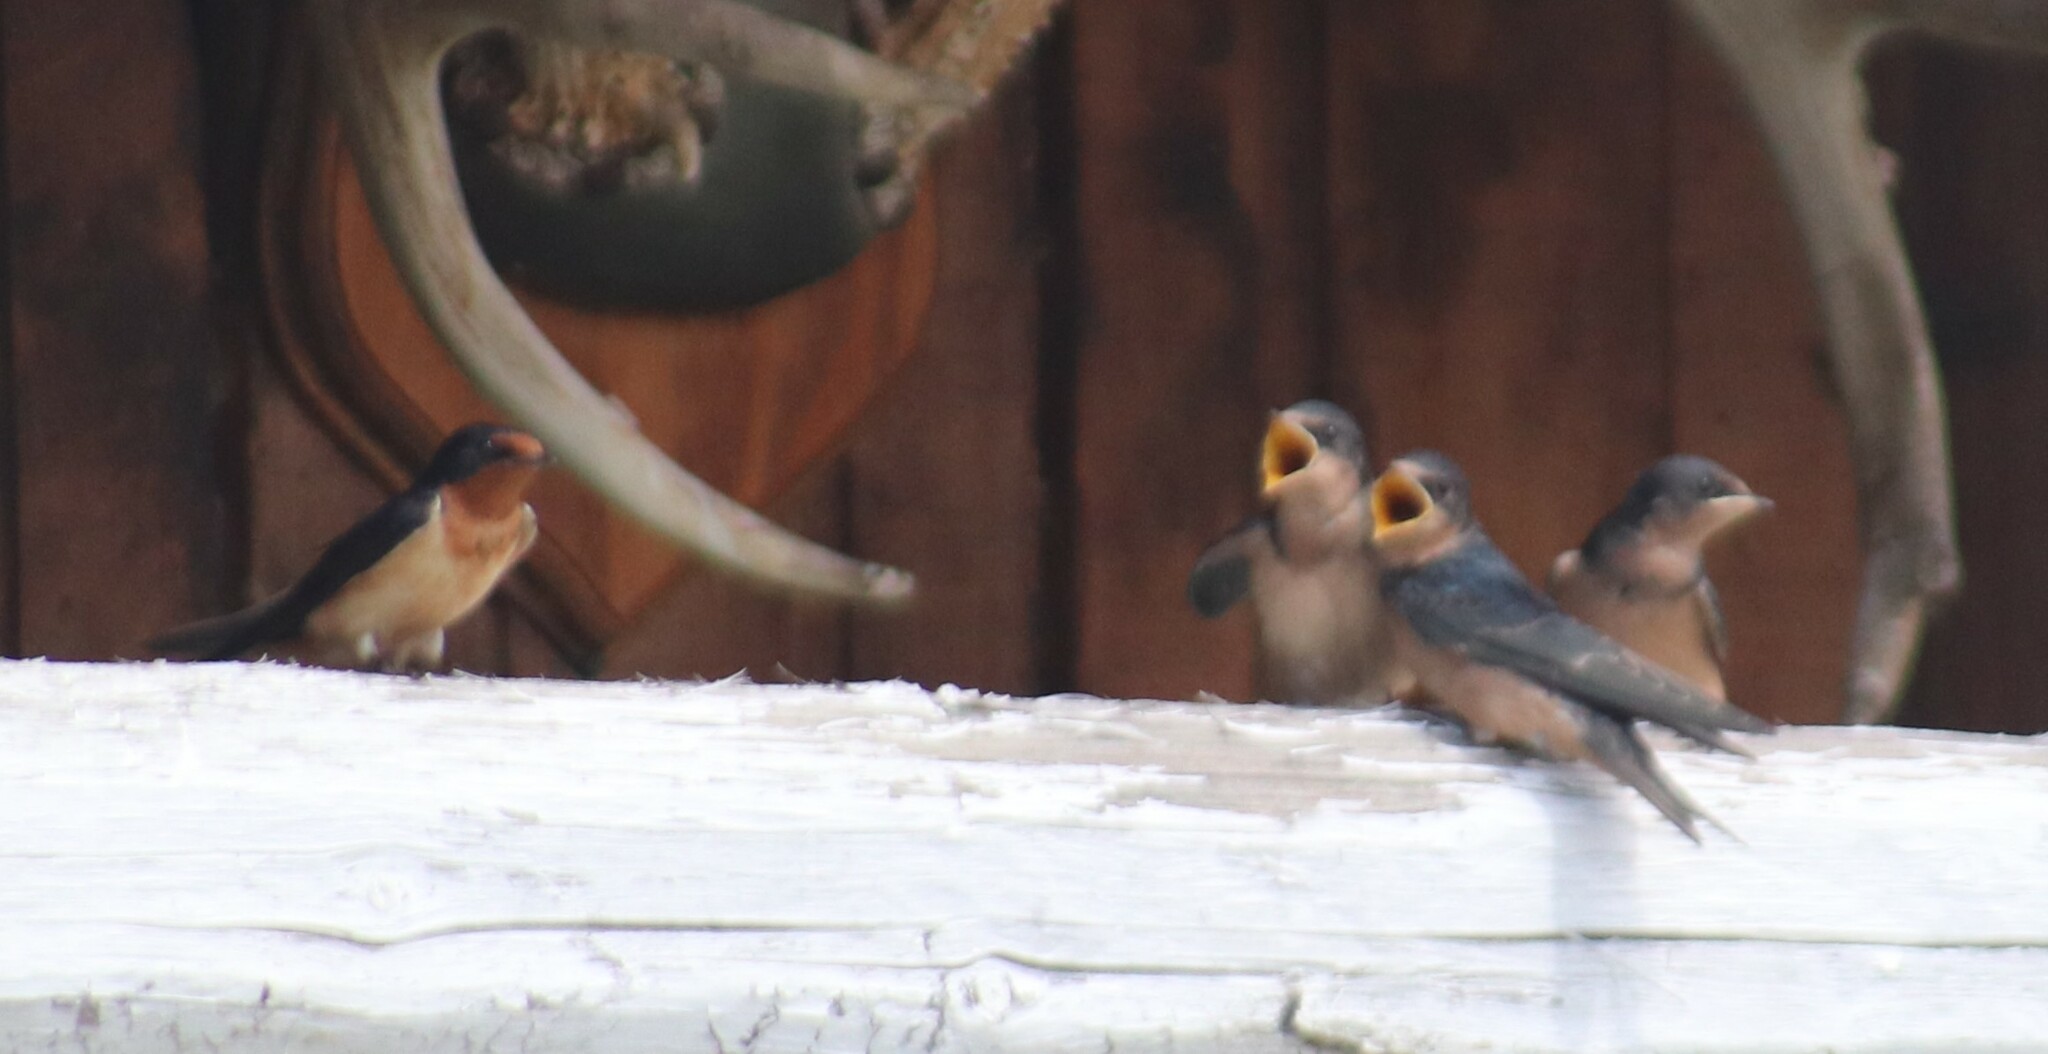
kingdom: Animalia
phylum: Chordata
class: Aves
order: Passeriformes
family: Hirundinidae
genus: Hirundo
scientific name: Hirundo rustica
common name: Barn swallow
